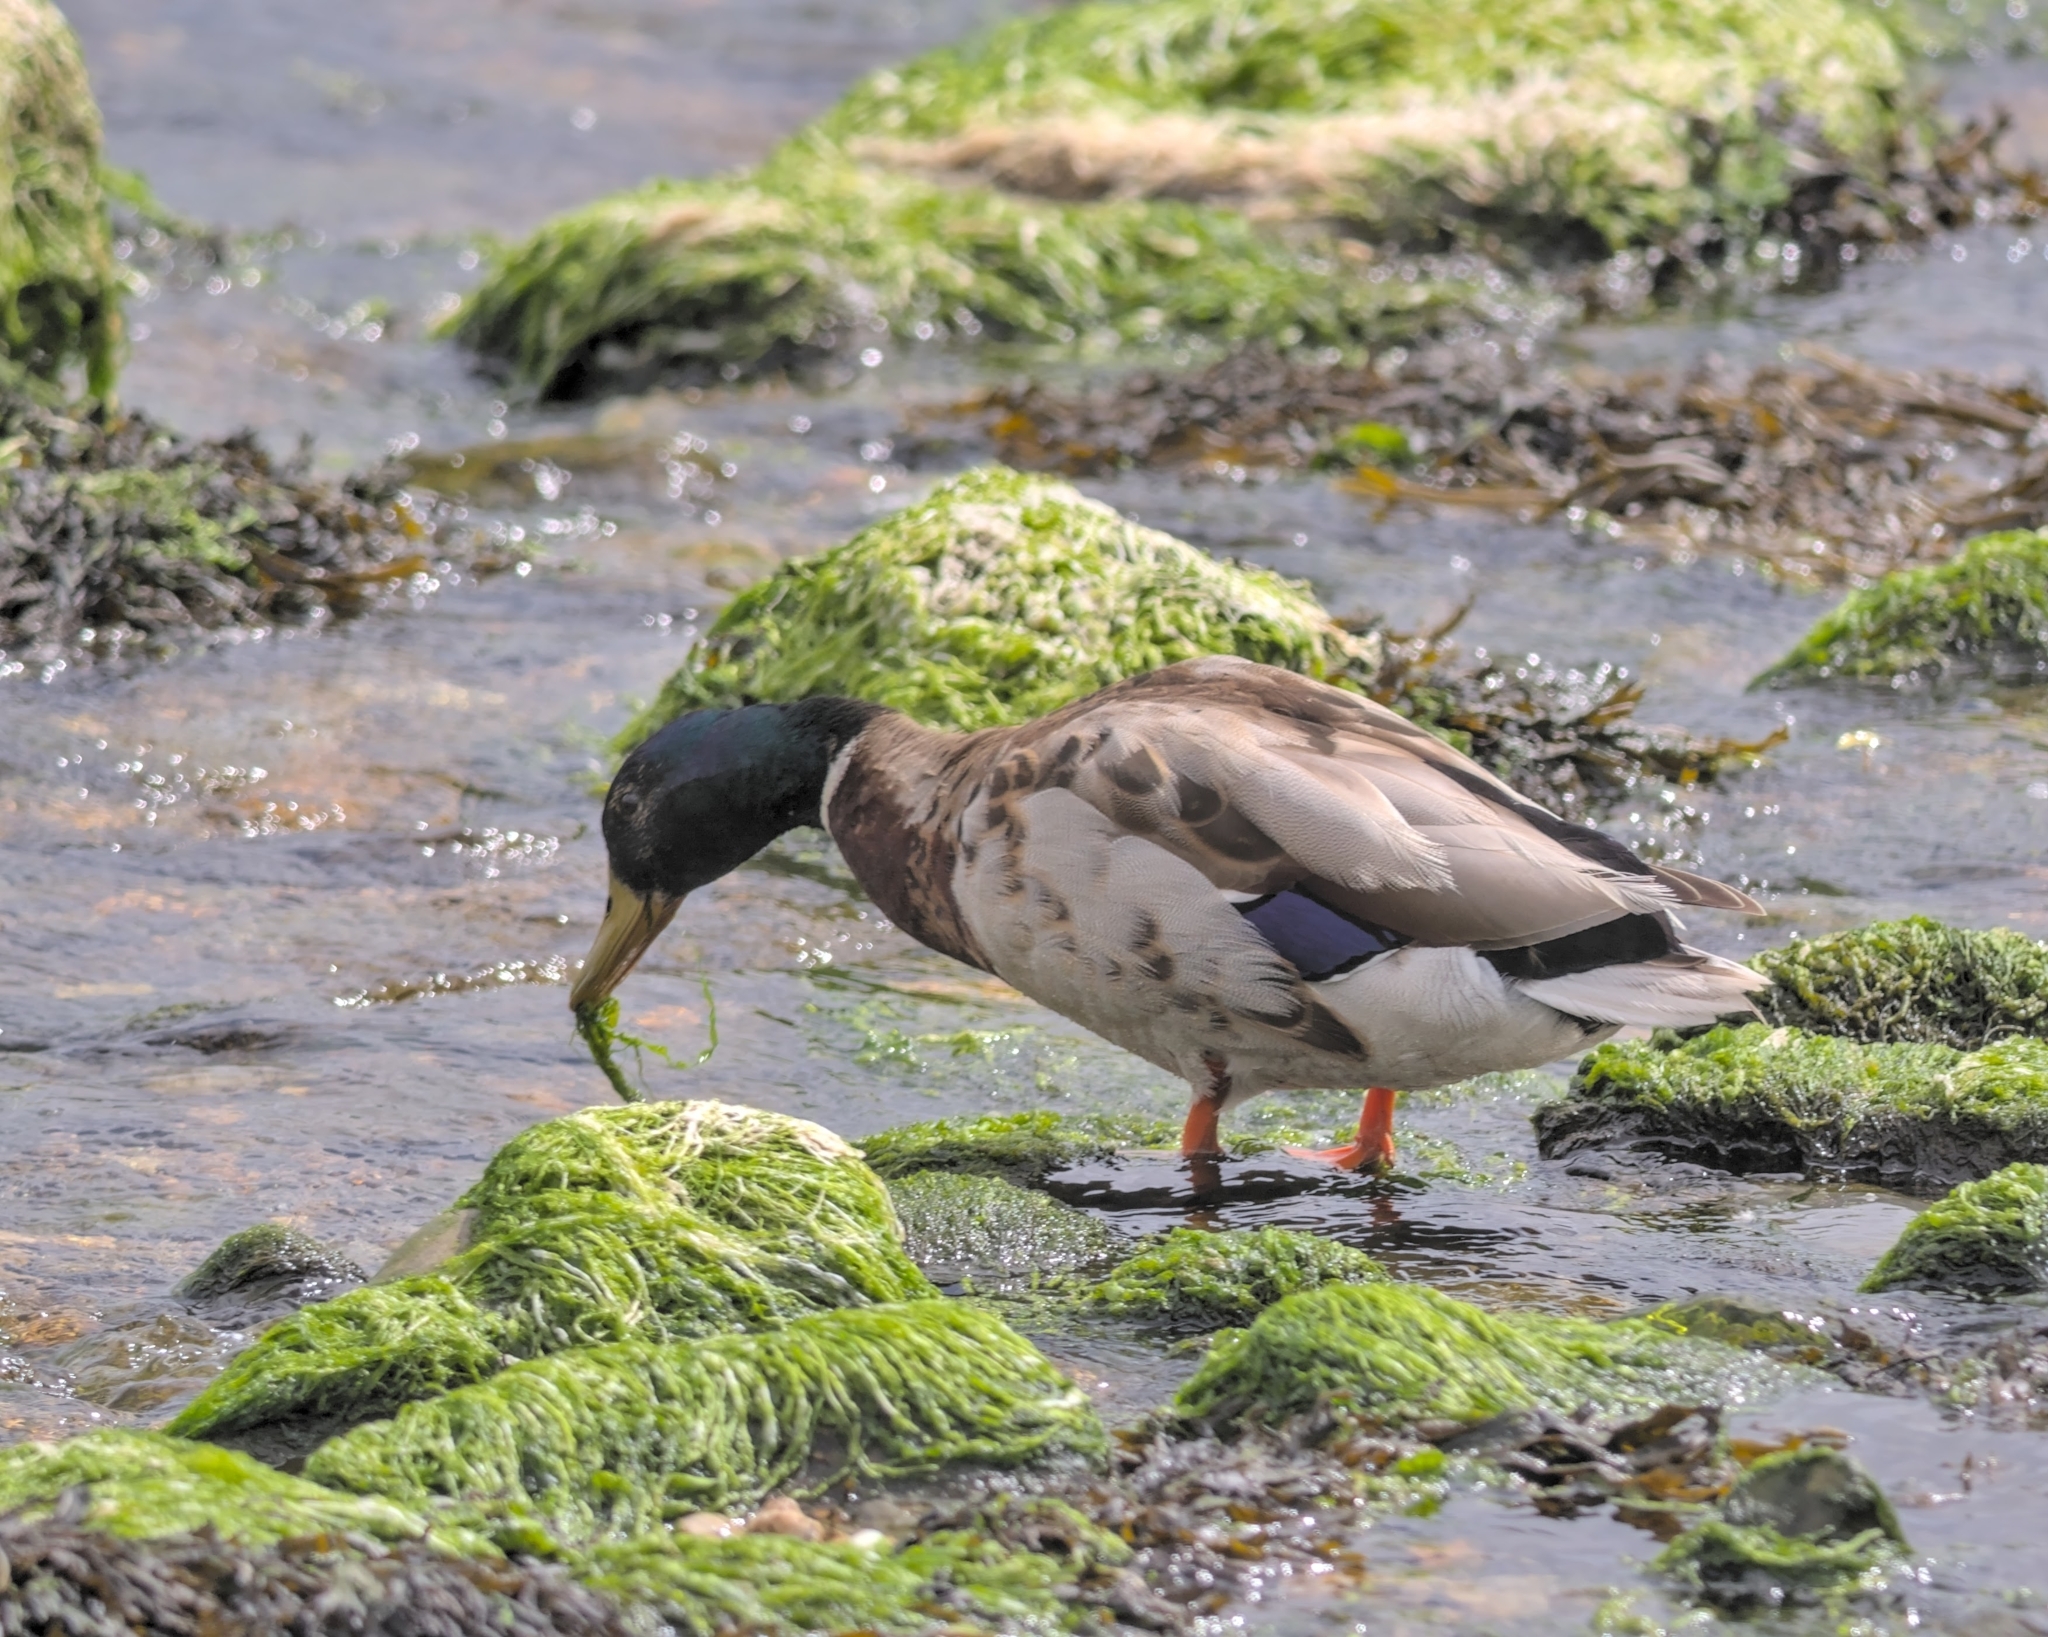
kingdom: Animalia
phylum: Chordata
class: Aves
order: Anseriformes
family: Anatidae
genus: Anas
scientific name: Anas platyrhynchos
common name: Mallard
